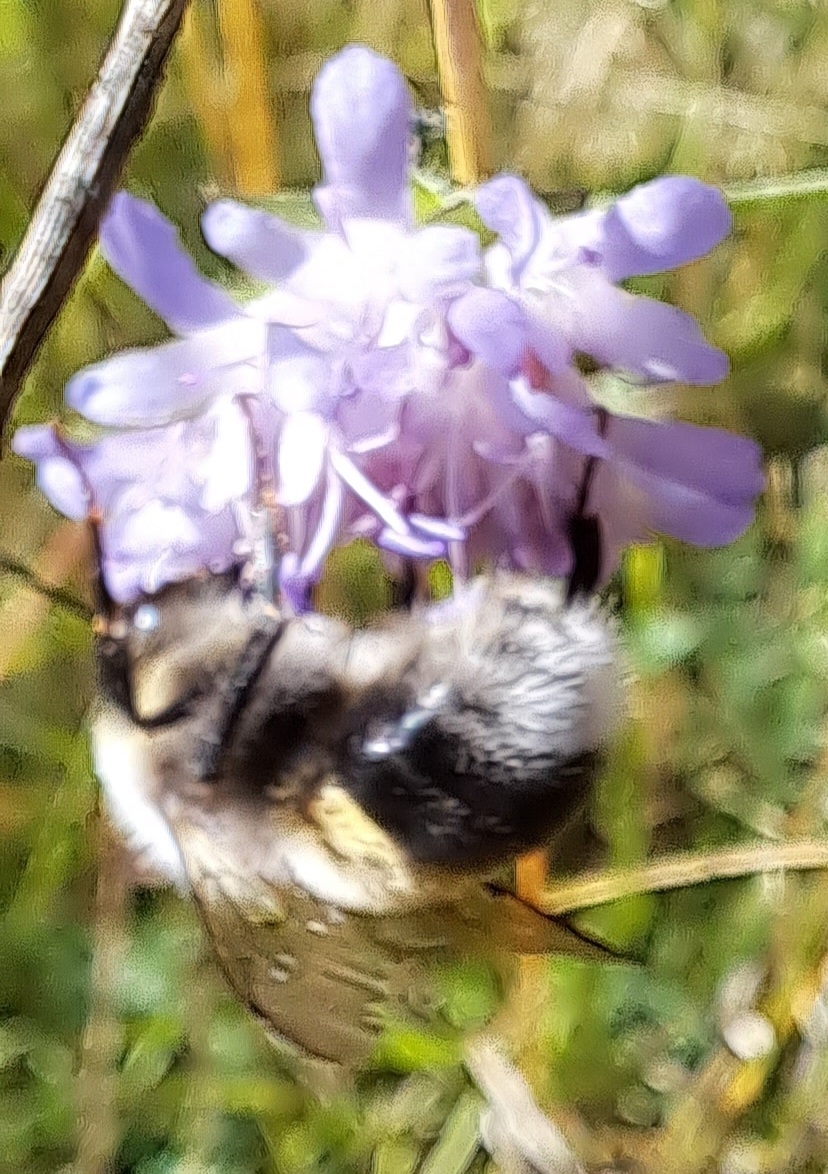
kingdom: Animalia
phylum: Arthropoda
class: Insecta
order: Hymenoptera
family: Apidae
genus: Bombus
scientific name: Bombus lucorum
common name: White-tailed bumblebee
